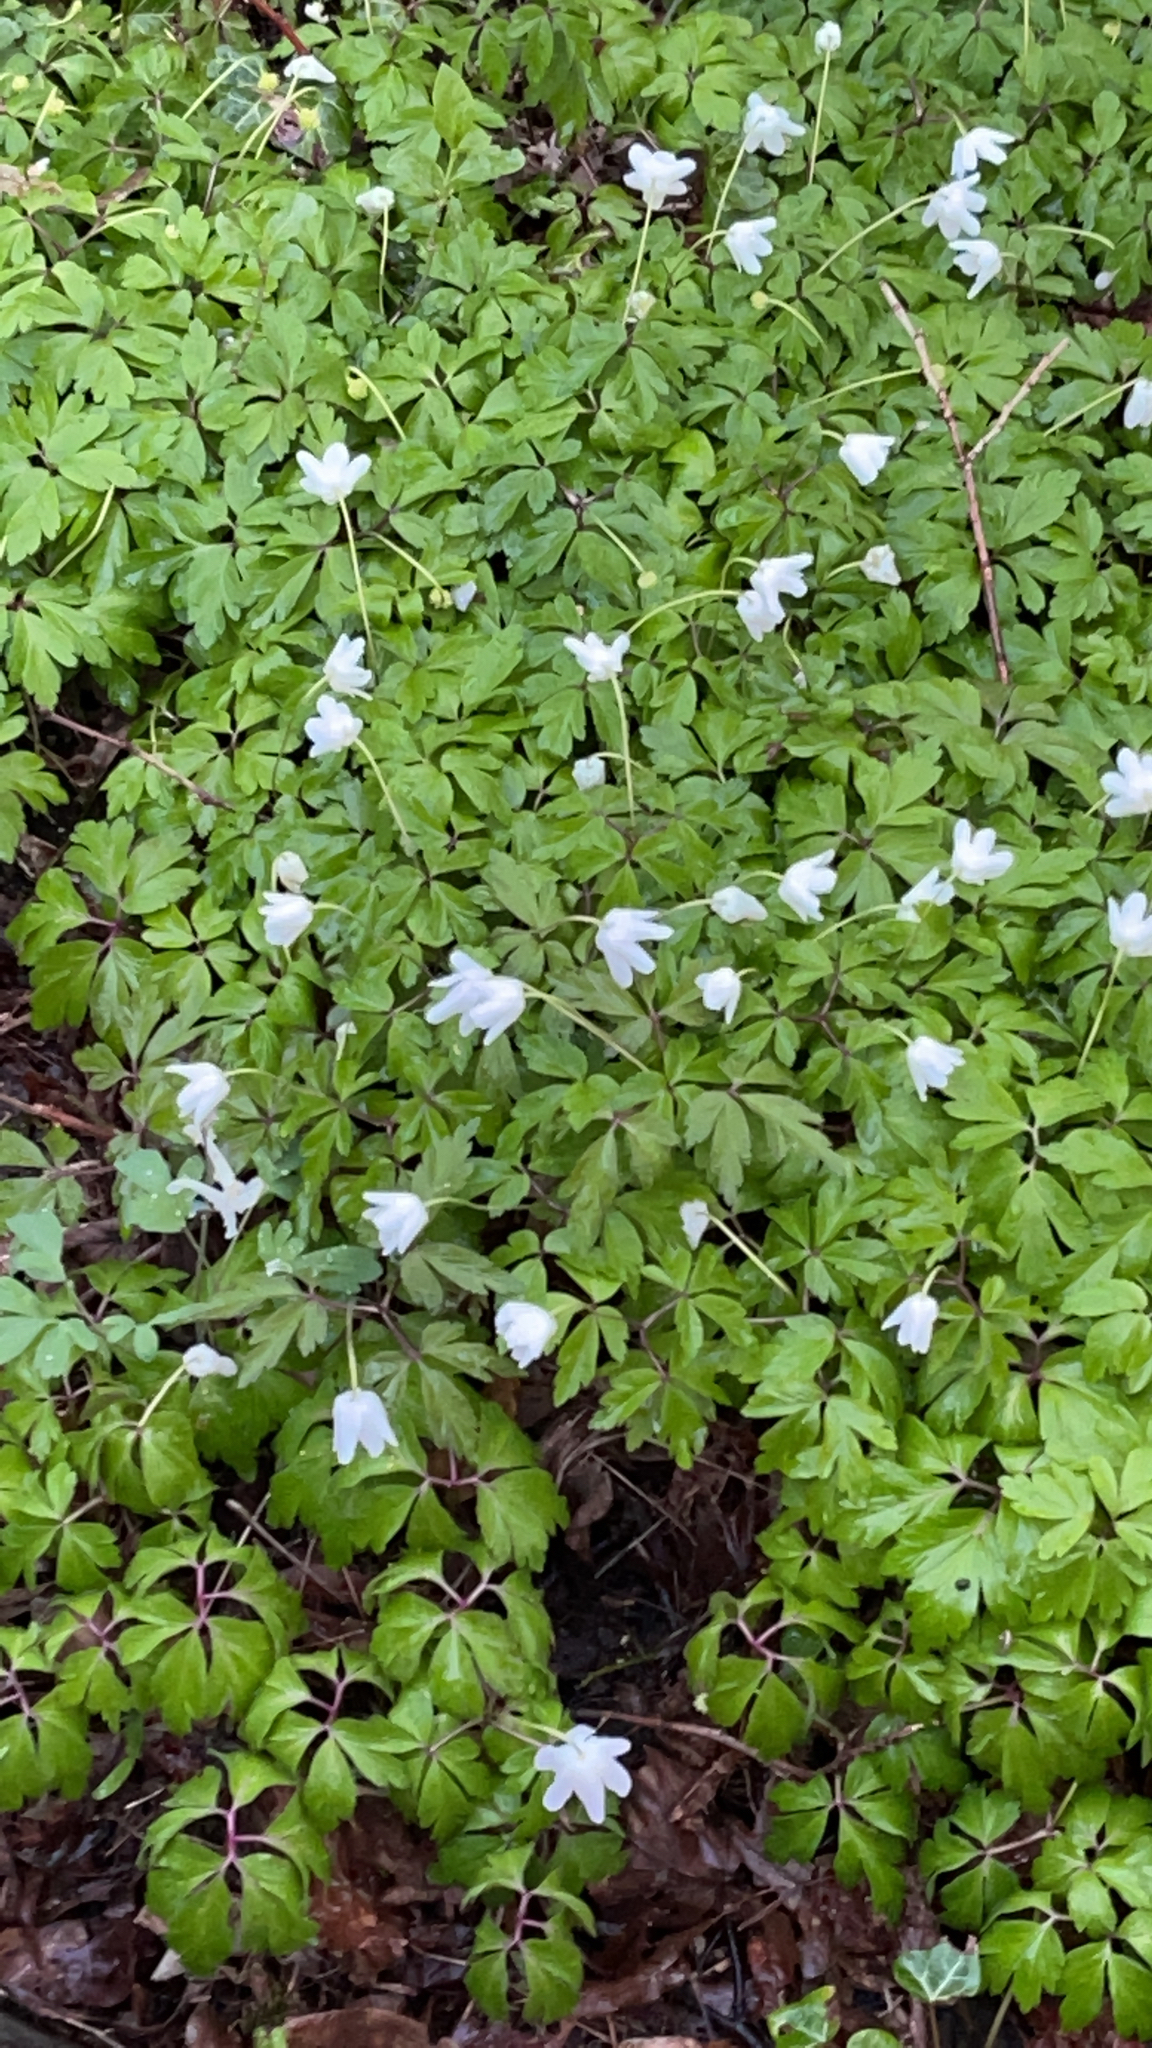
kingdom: Plantae
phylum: Tracheophyta
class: Magnoliopsida
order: Ranunculales
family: Ranunculaceae
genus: Anemone
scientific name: Anemone nemorosa
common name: Wood anemone
